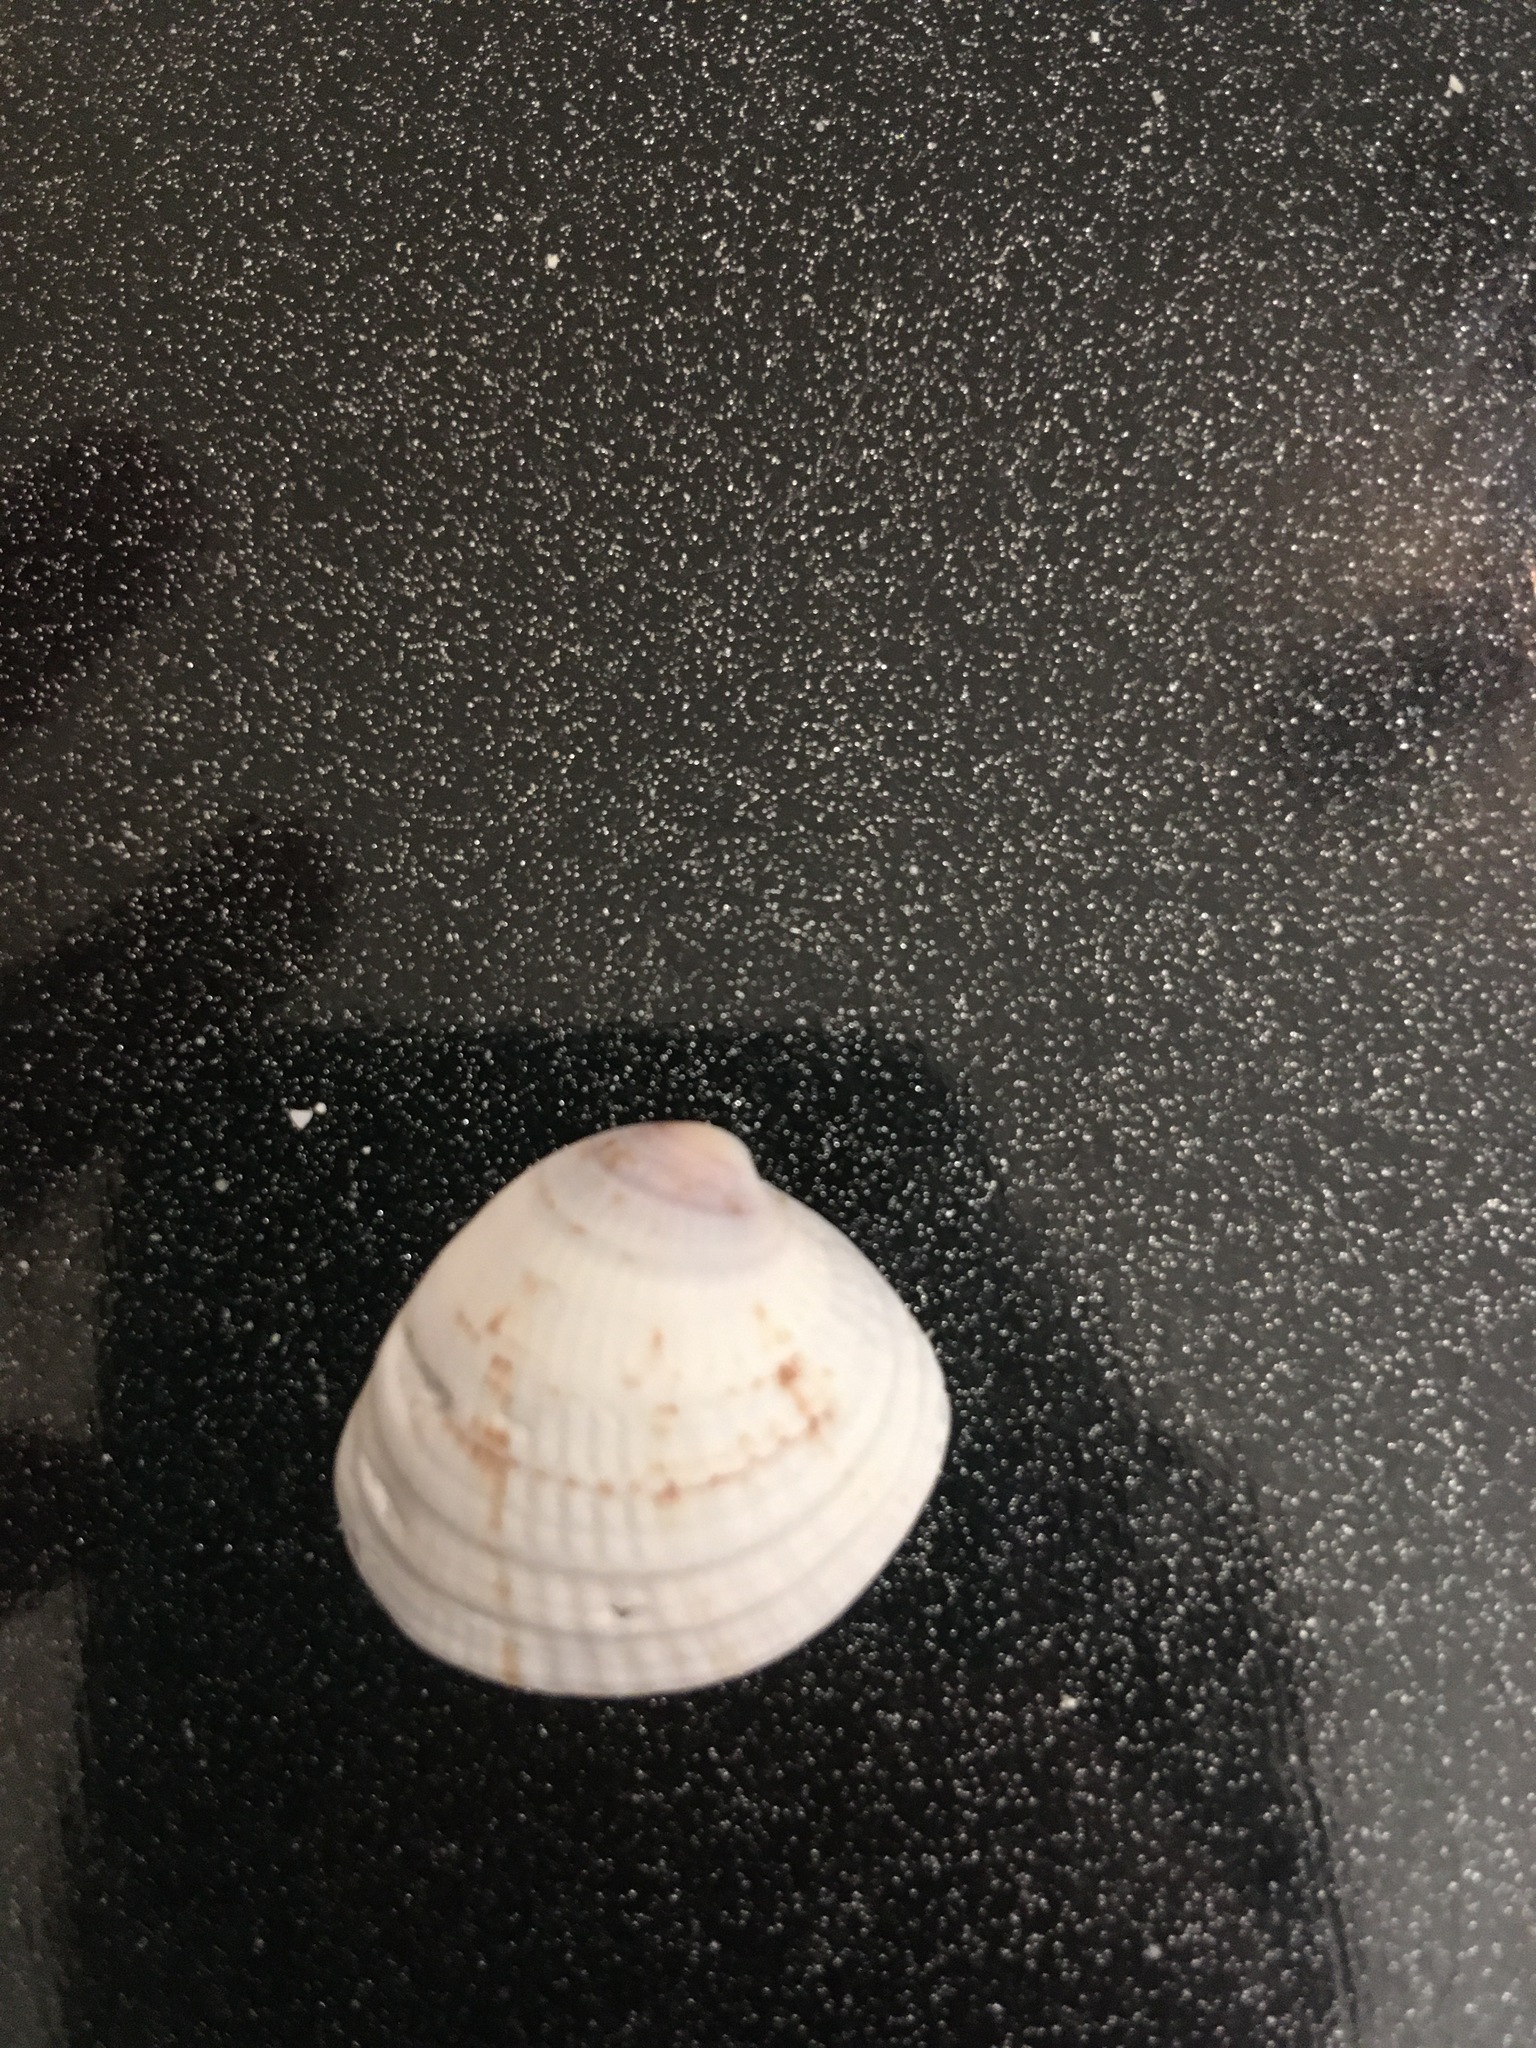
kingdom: Animalia
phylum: Mollusca
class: Bivalvia
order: Venerida
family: Veneridae
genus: Chione
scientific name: Chione elevata
